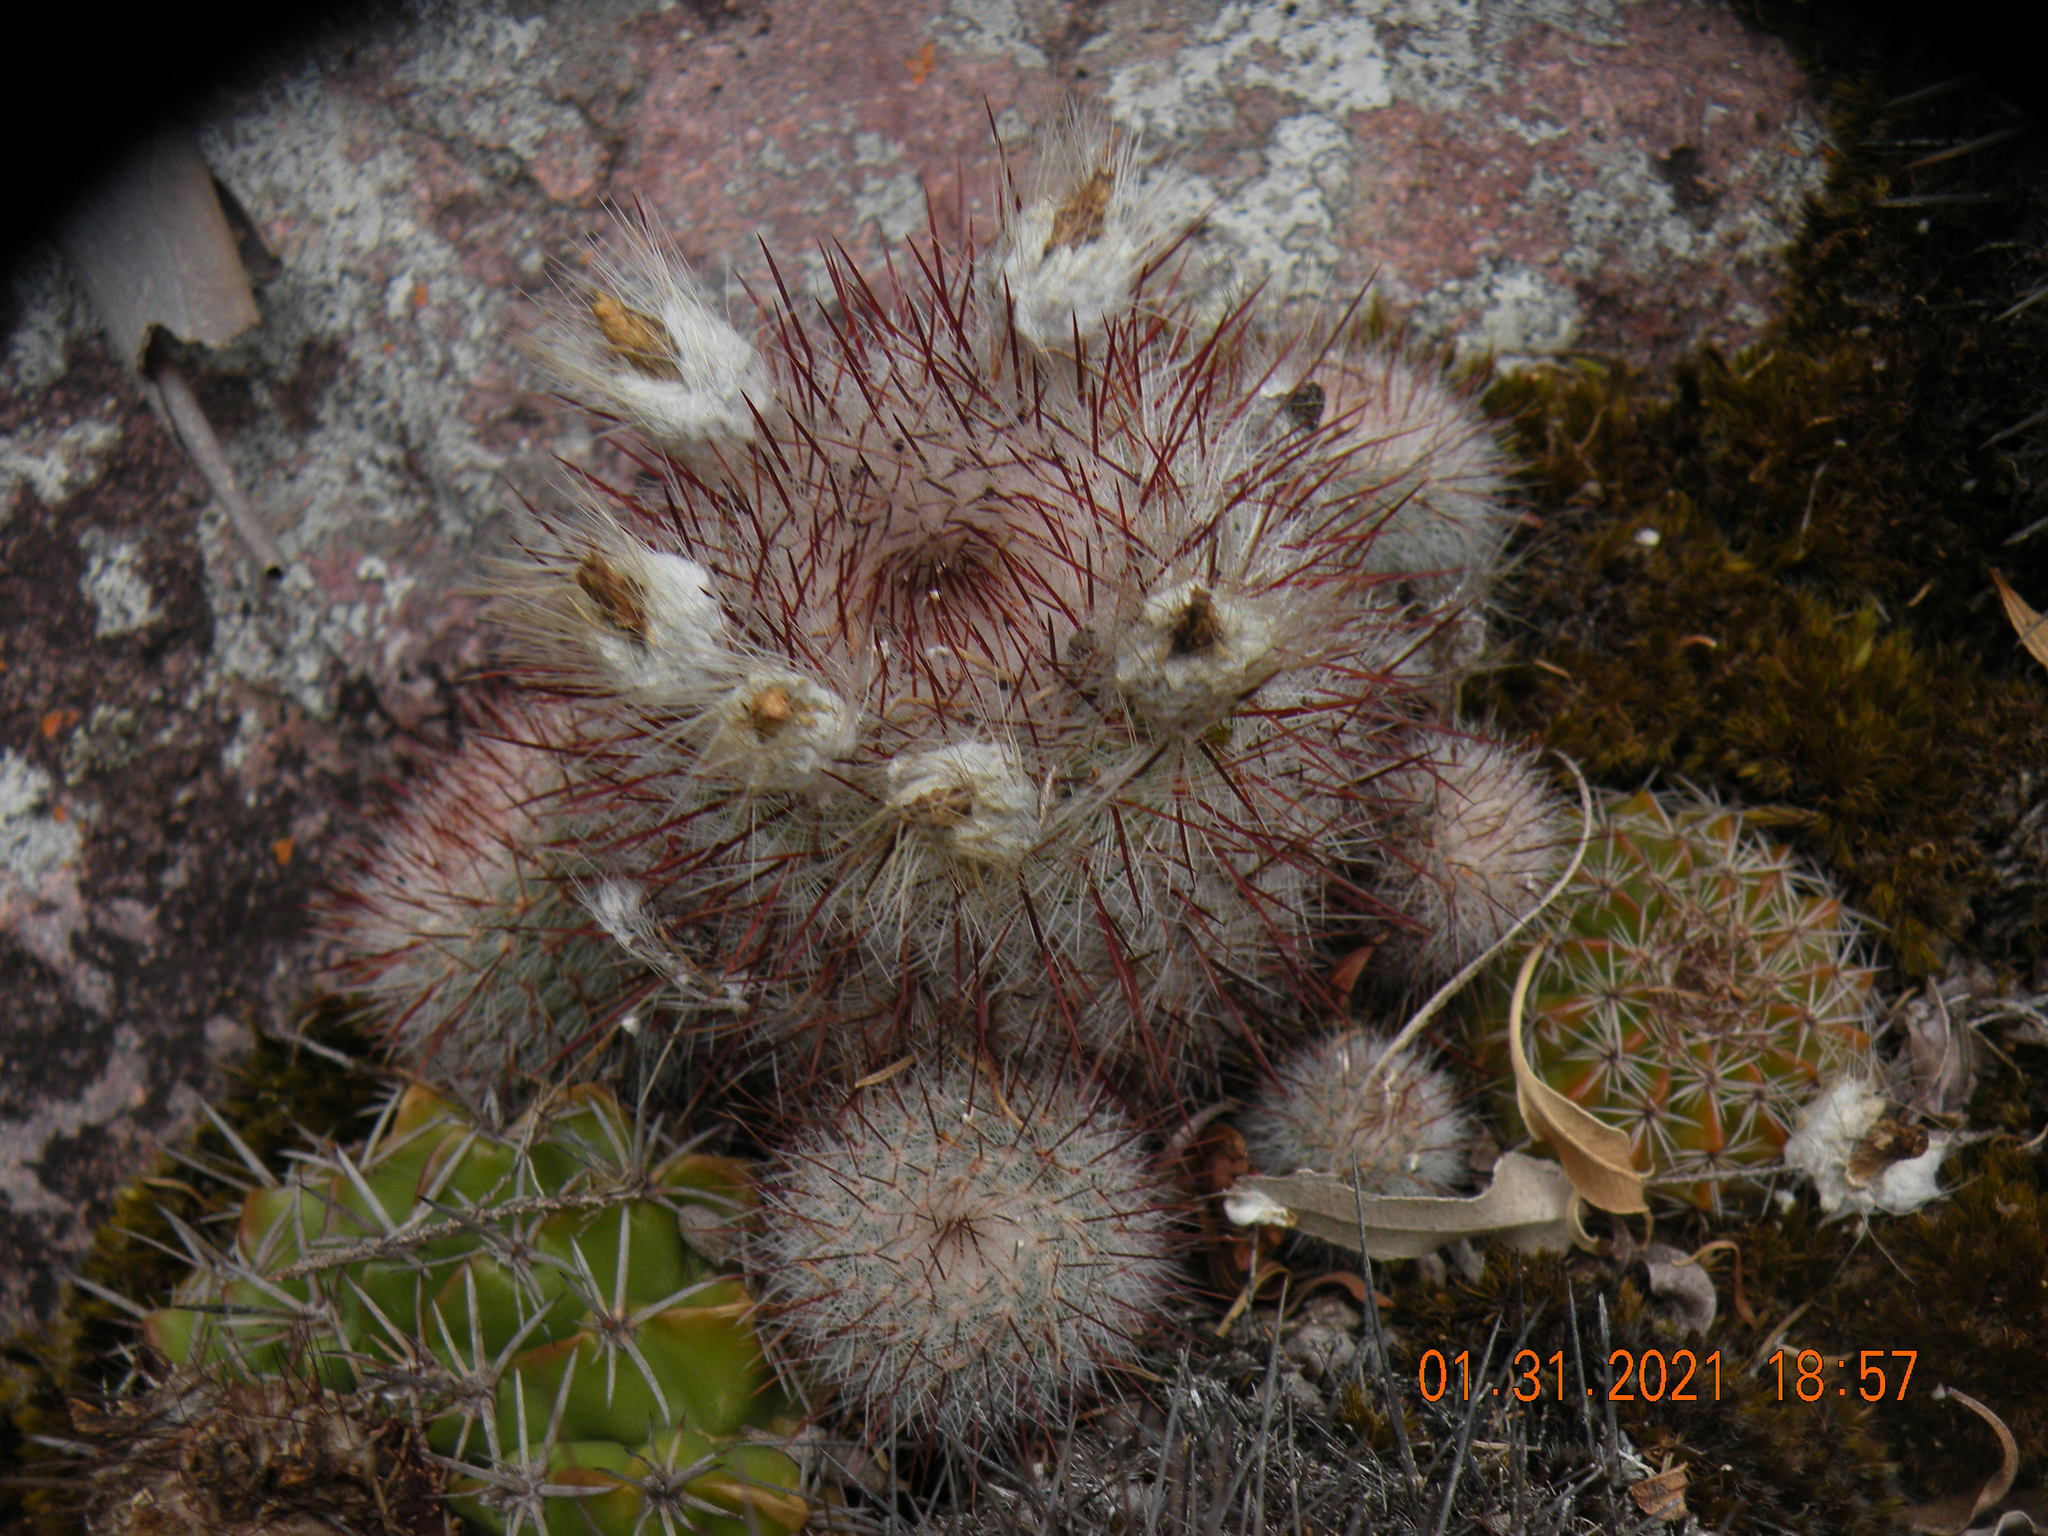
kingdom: Plantae
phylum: Tracheophyta
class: Magnoliopsida
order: Caryophyllales
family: Cactaceae
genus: Parodia
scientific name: Parodia scopa
